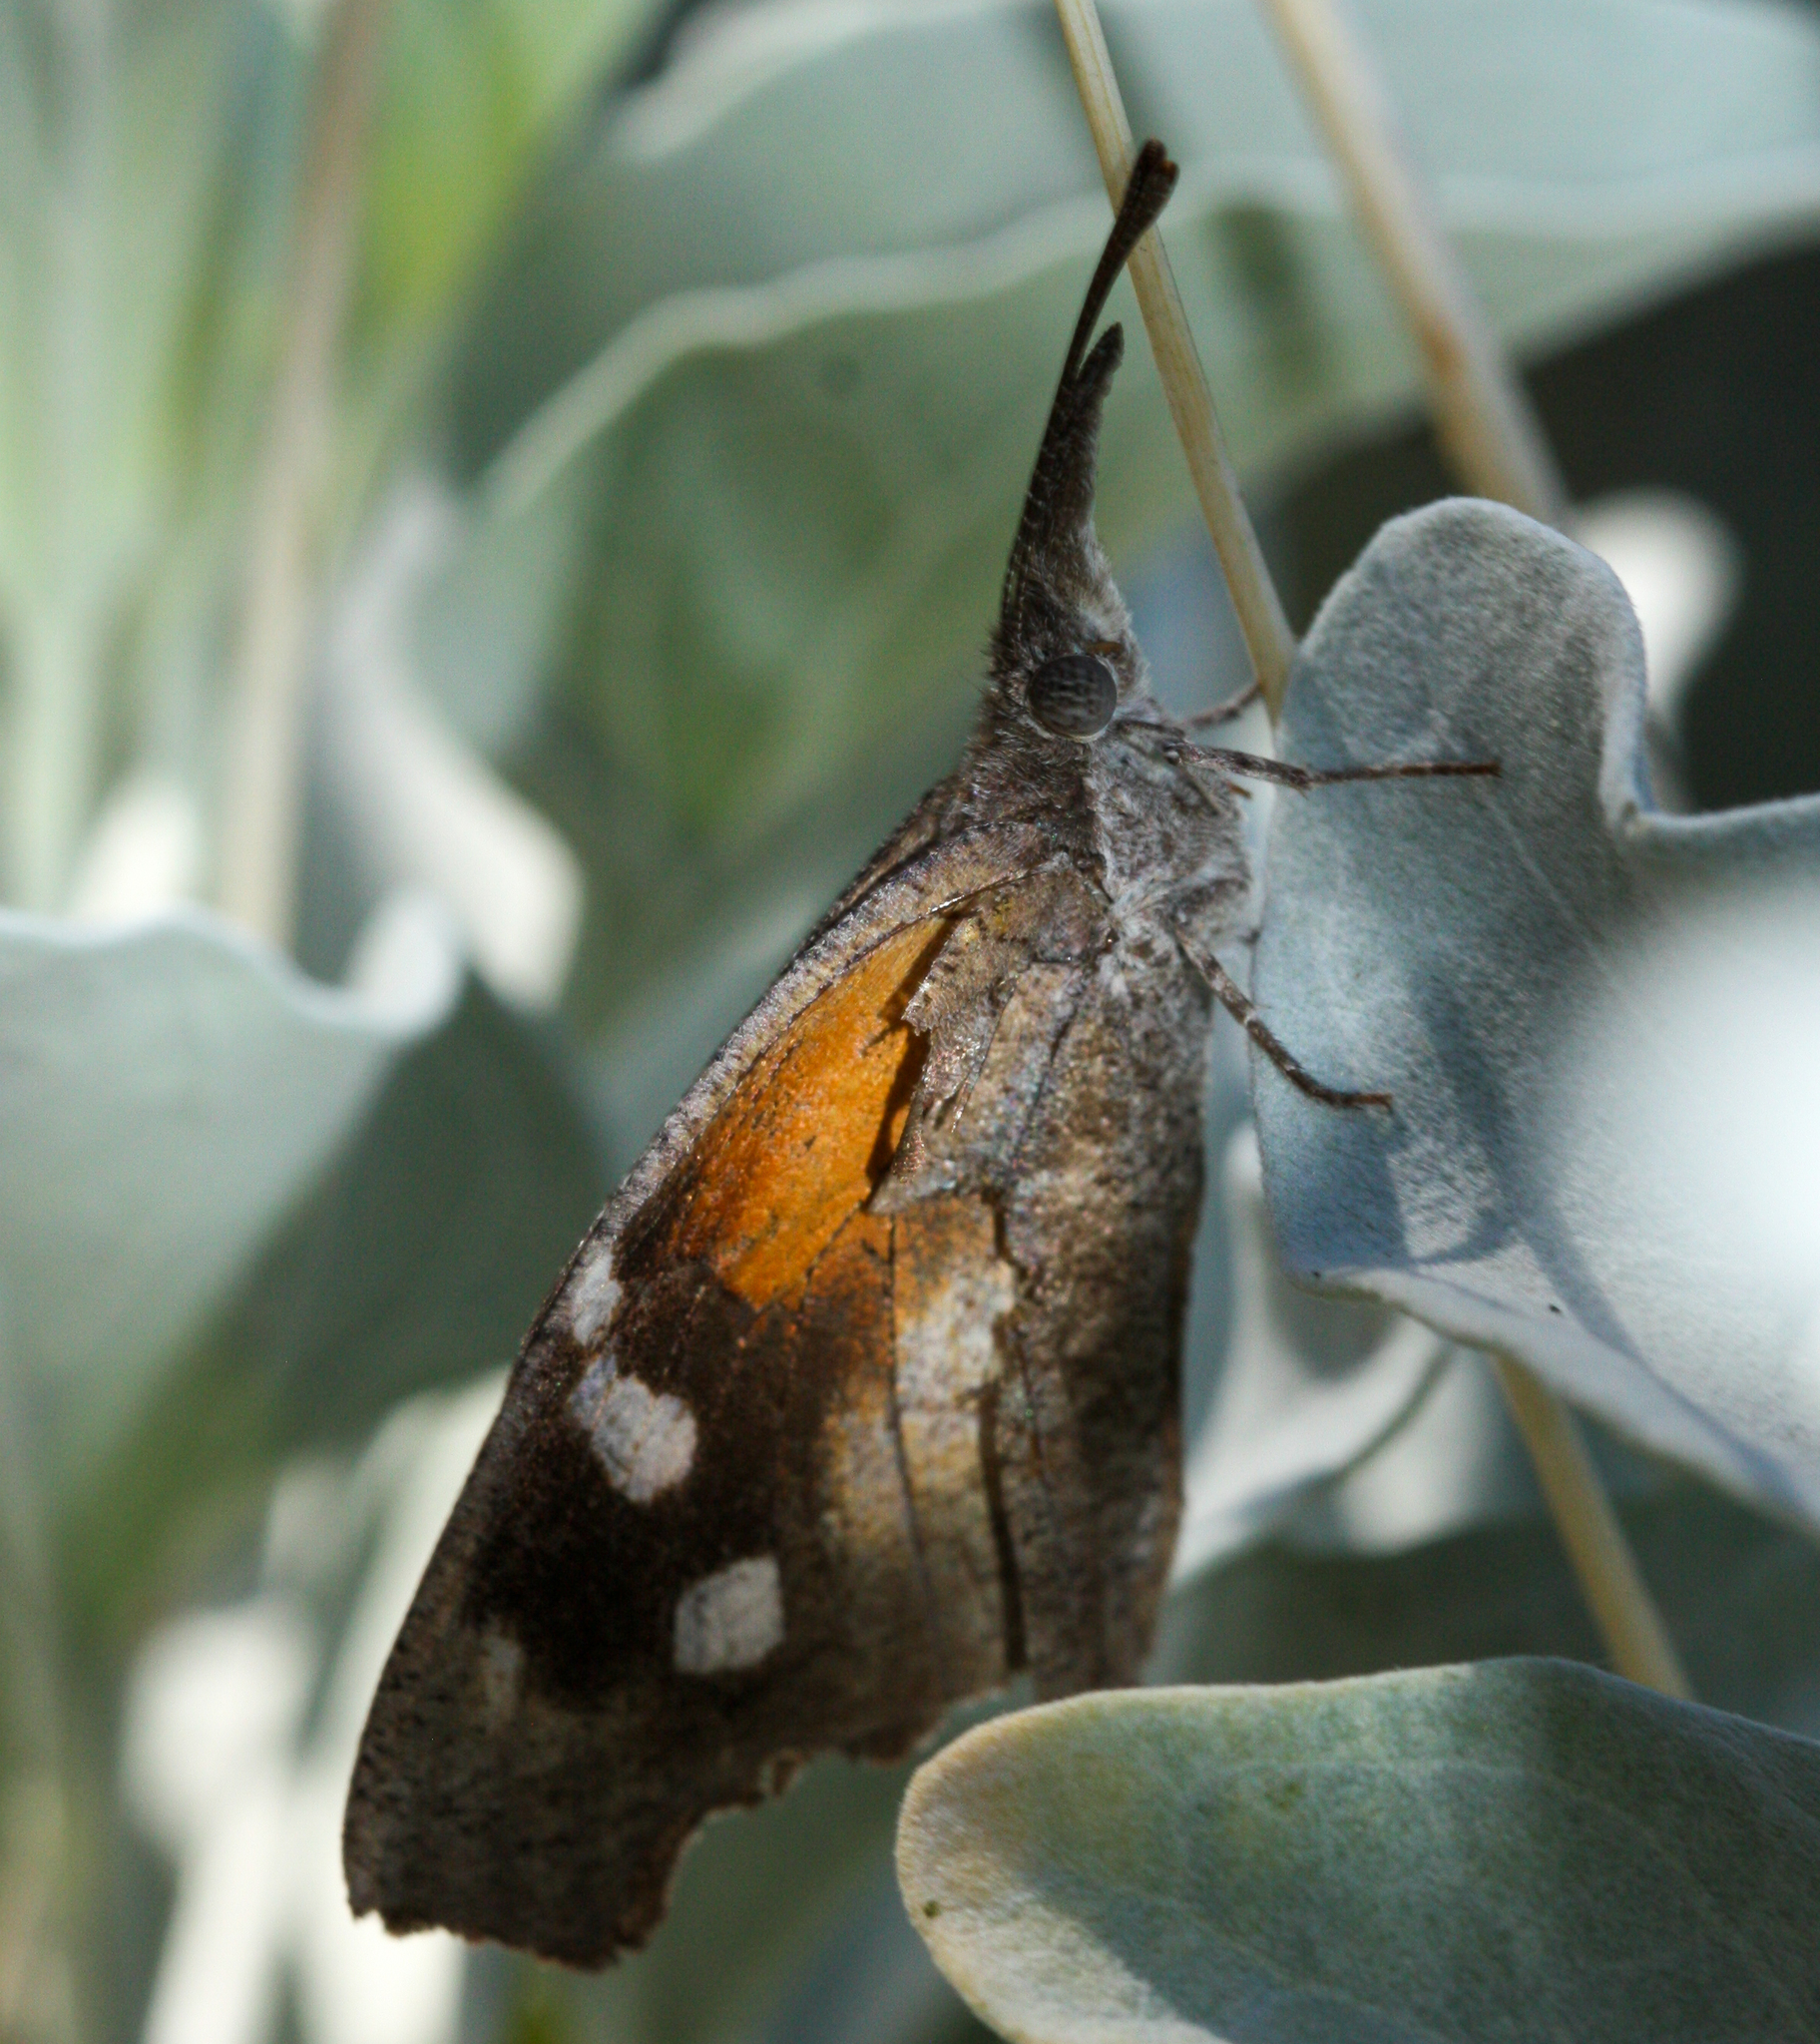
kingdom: Animalia
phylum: Arthropoda
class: Insecta
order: Lepidoptera
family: Nymphalidae
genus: Libytheana
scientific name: Libytheana carinenta
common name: American snout
